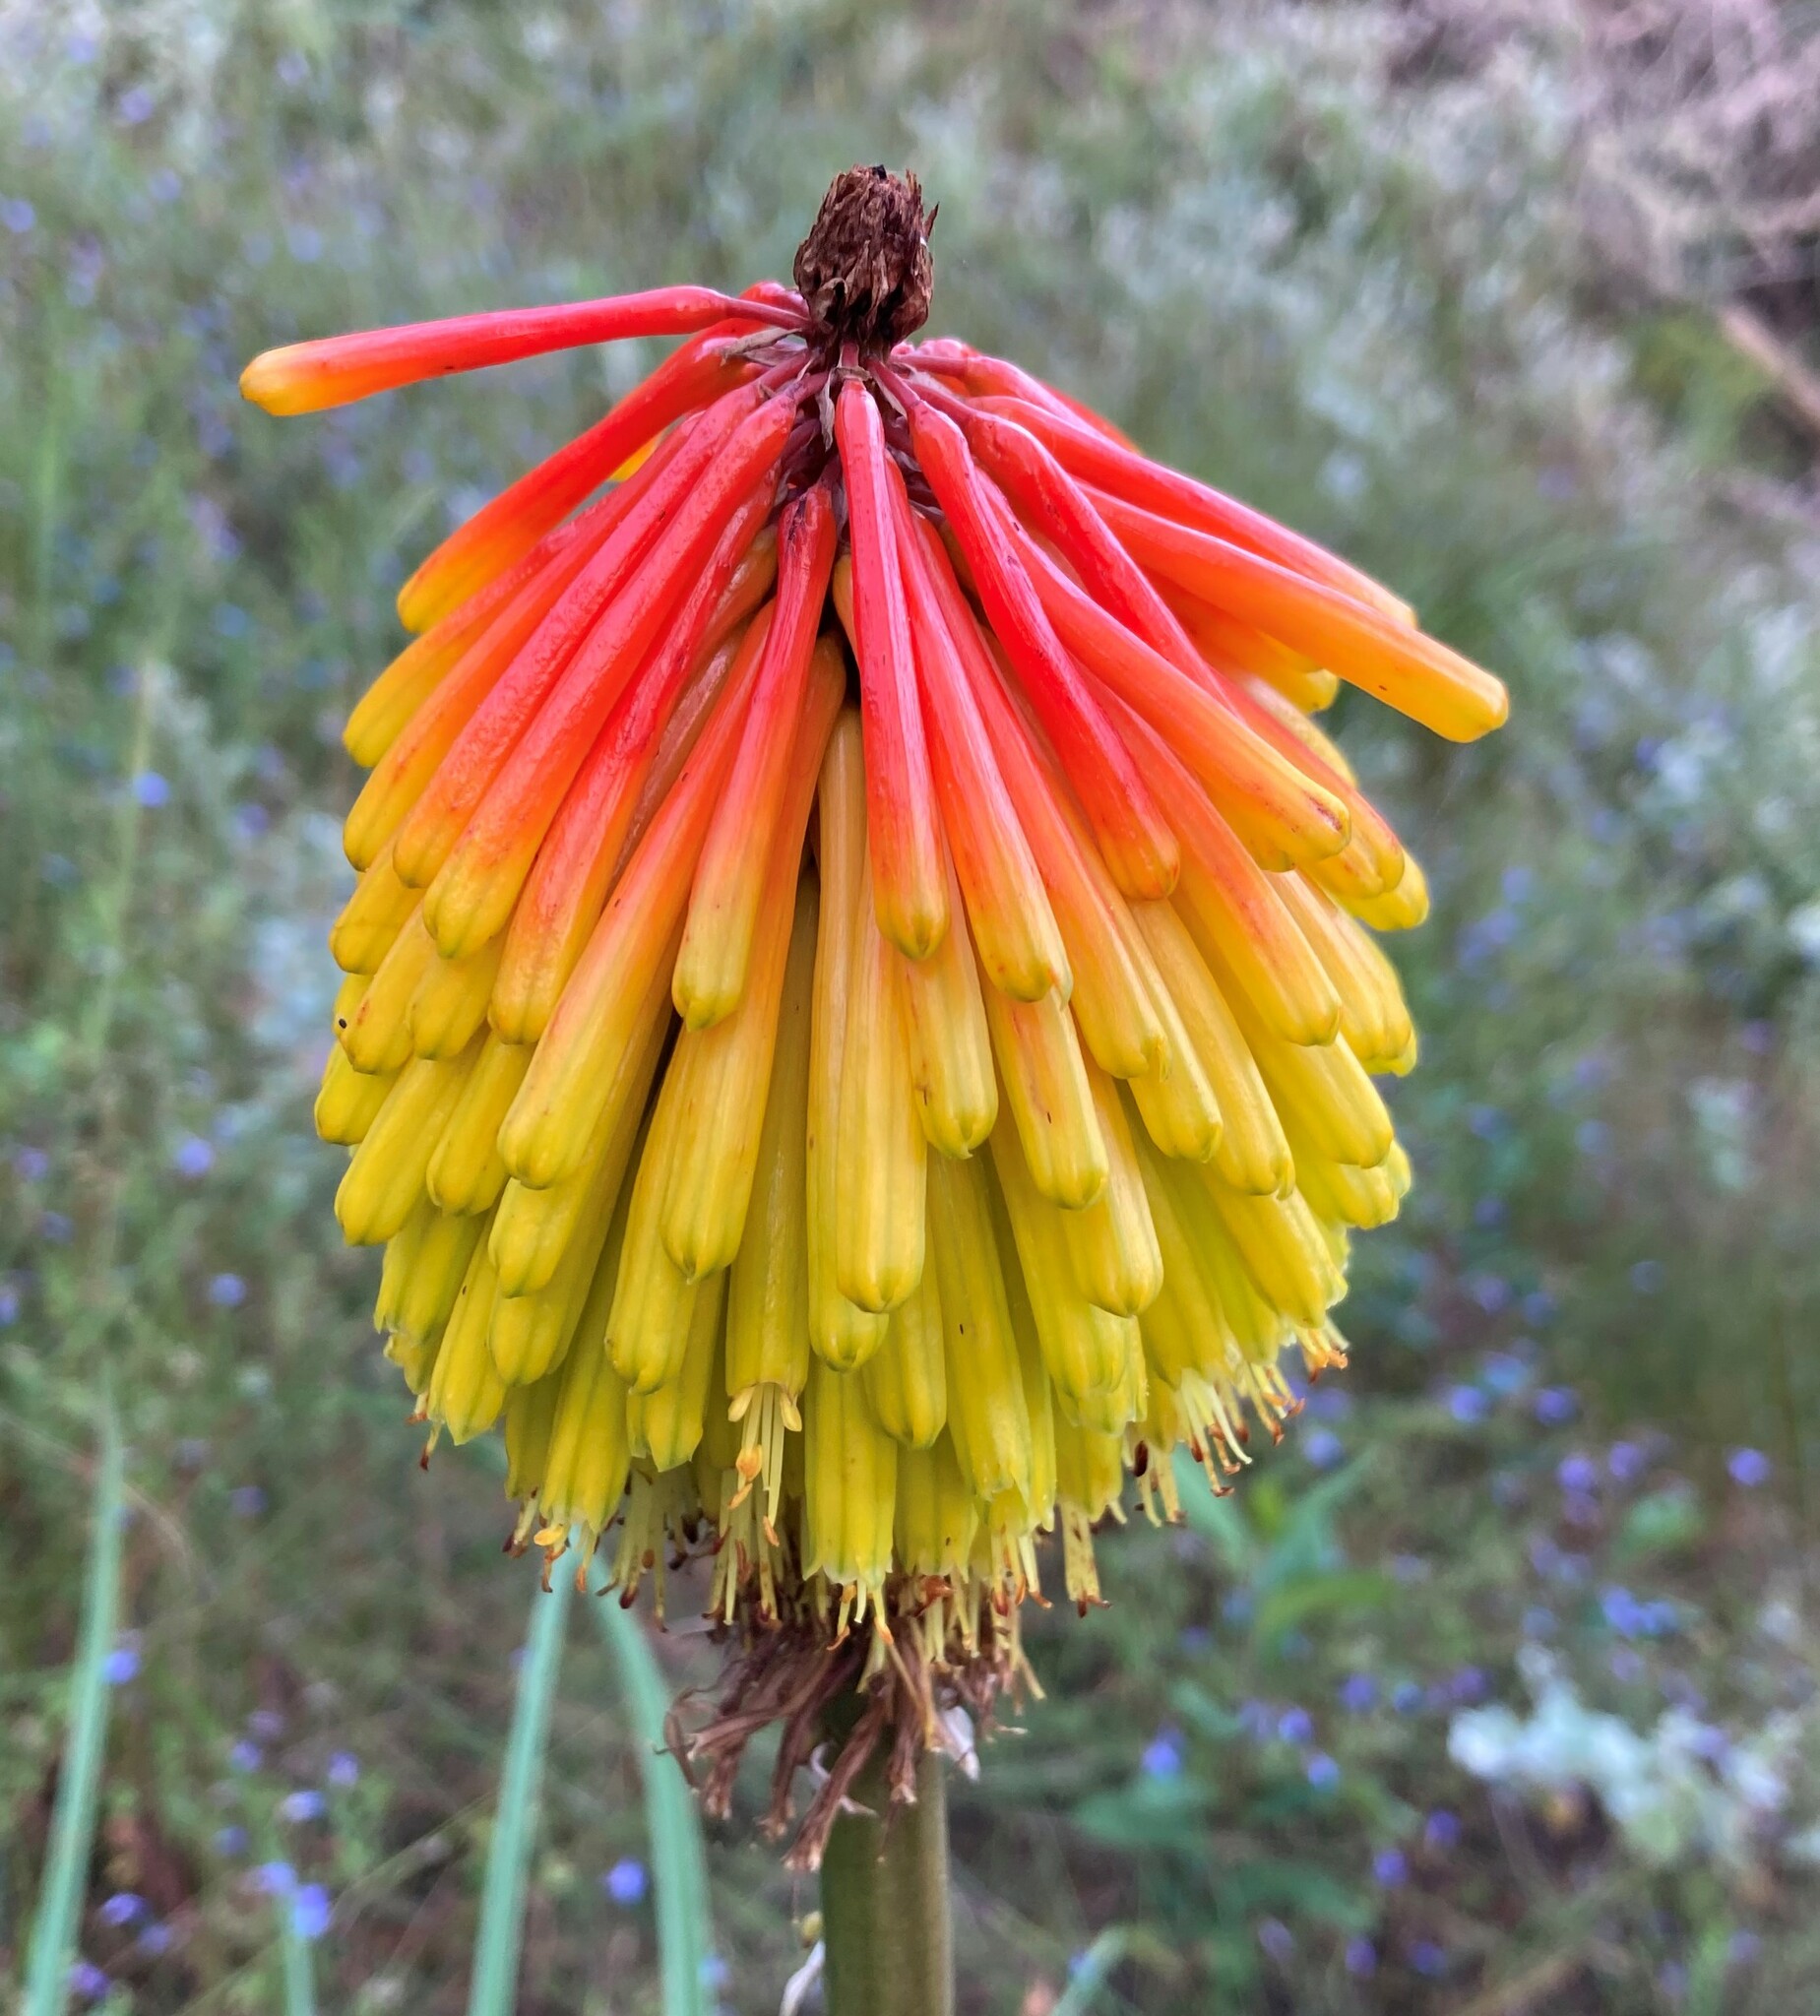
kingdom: Plantae
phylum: Tracheophyta
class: Liliopsida
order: Asparagales
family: Asphodelaceae
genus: Kniphofia
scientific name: Kniphofia uvaria
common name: Red-hot-poker
